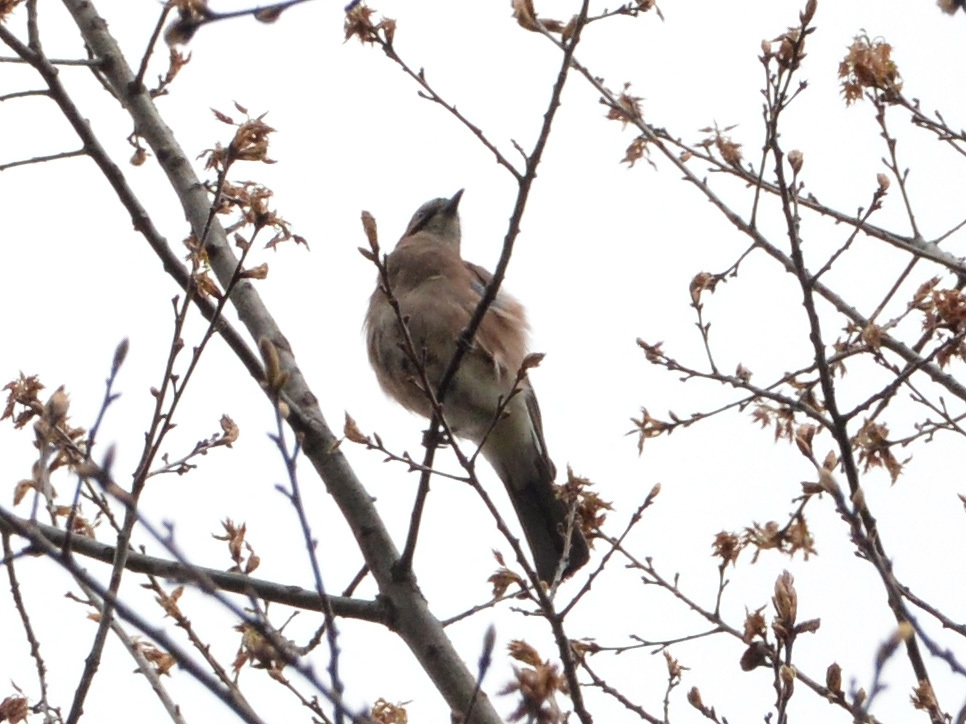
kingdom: Animalia
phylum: Chordata
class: Aves
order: Passeriformes
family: Corvidae
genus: Garrulus
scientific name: Garrulus glandarius
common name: Eurasian jay
